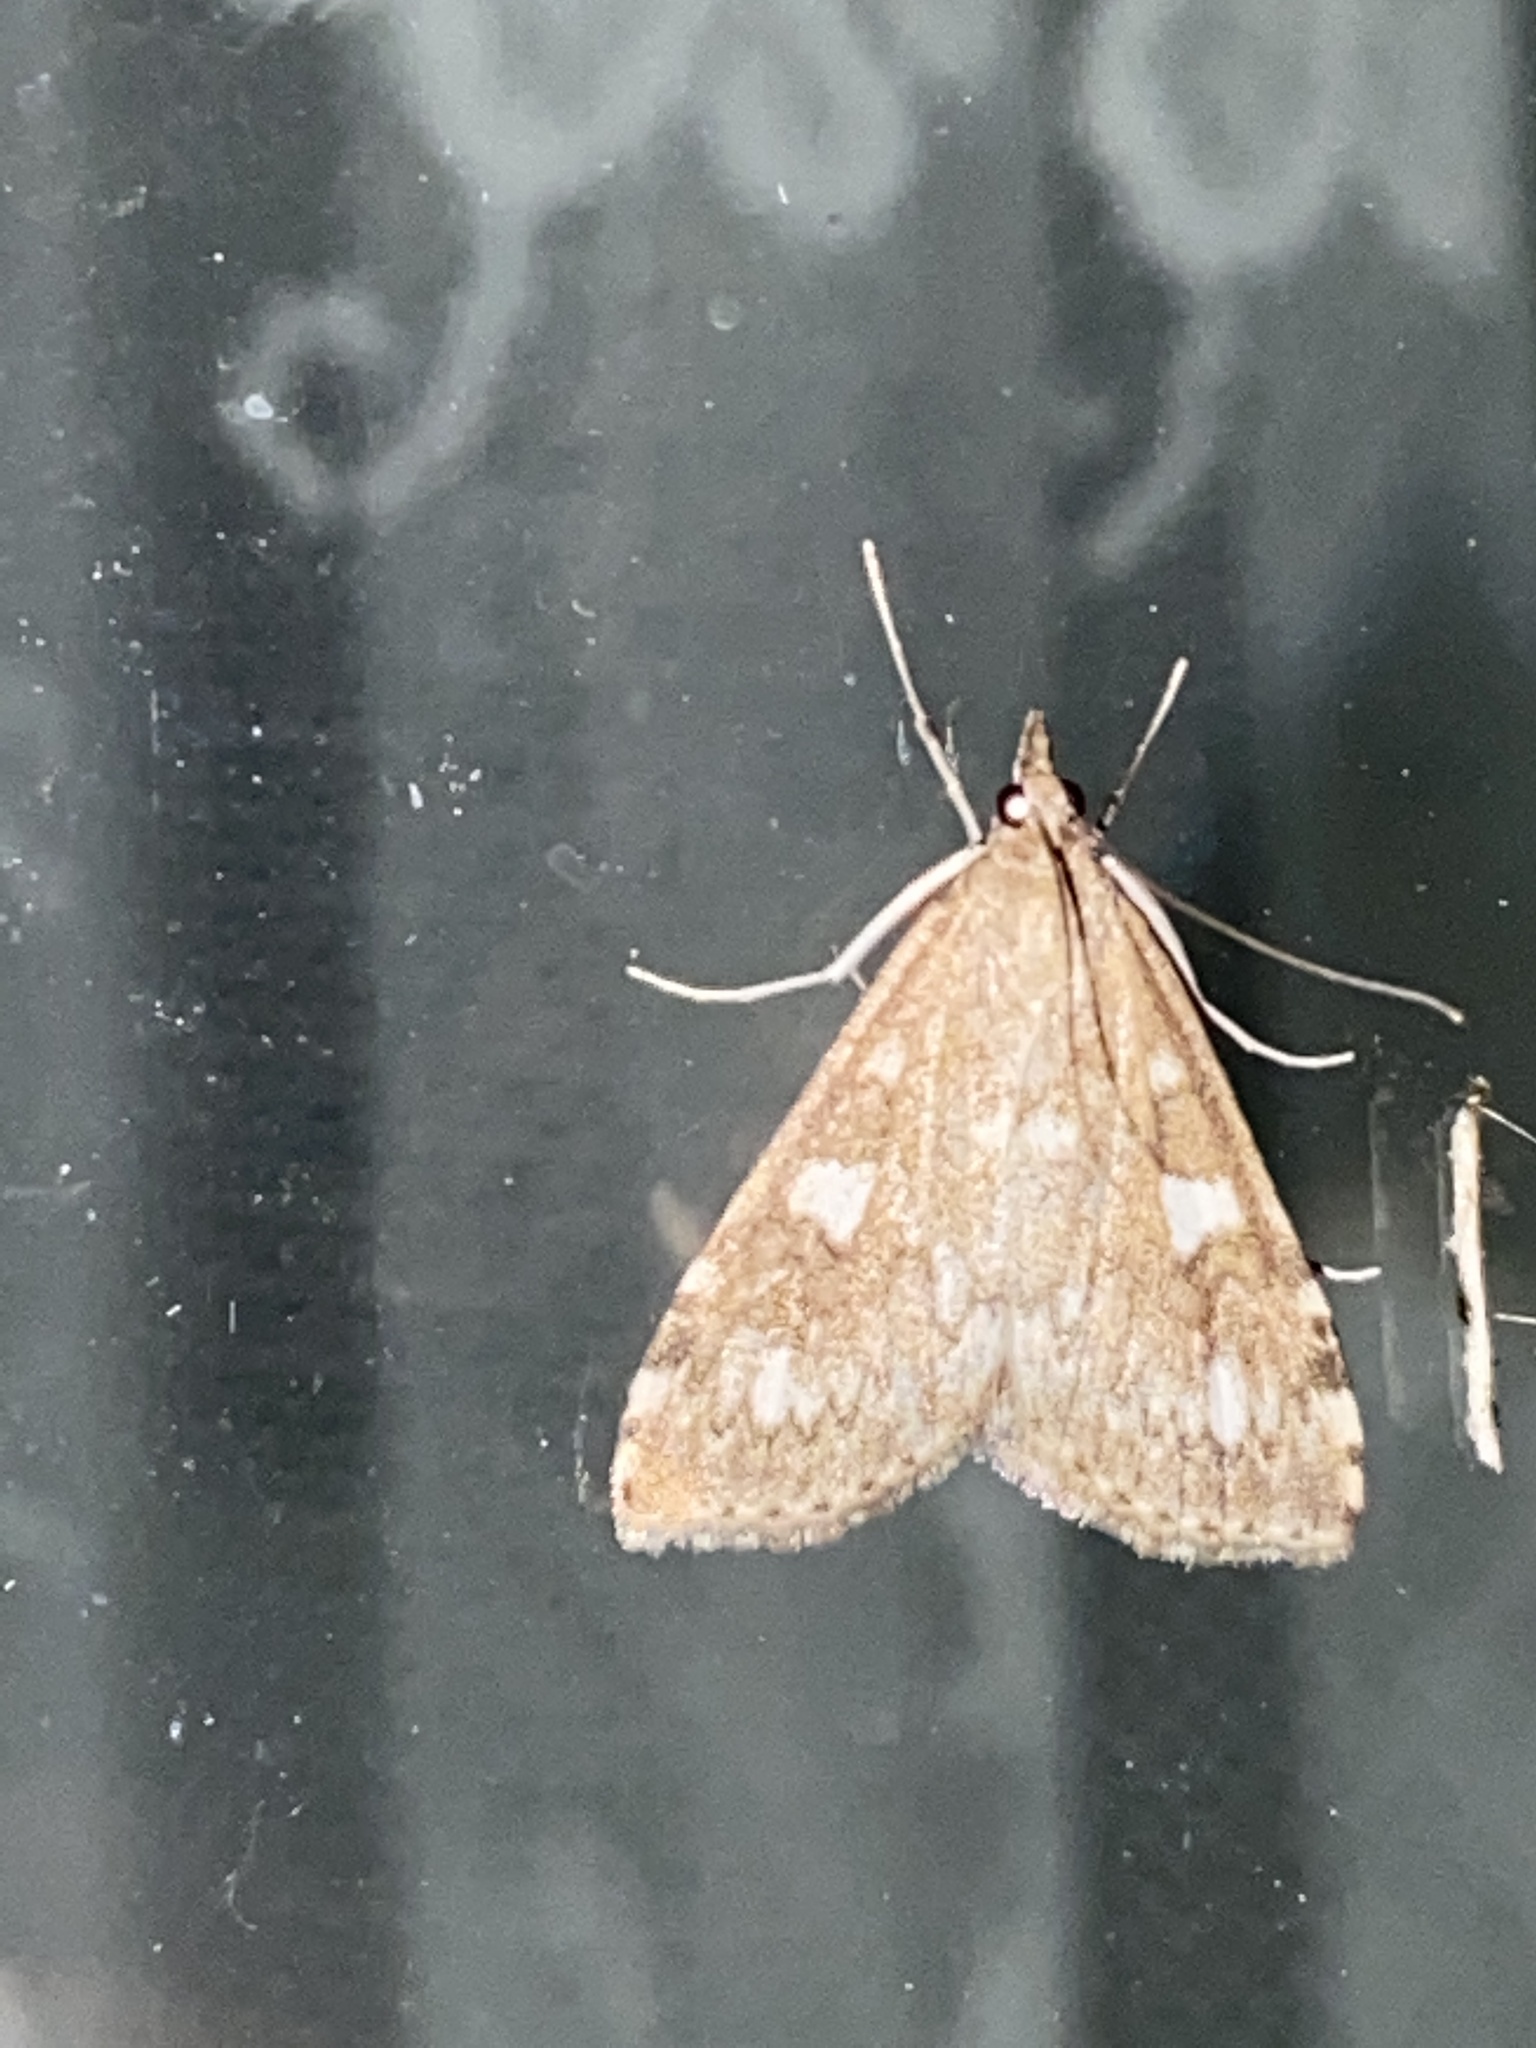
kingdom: Animalia
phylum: Arthropoda
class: Insecta
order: Lepidoptera
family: Crambidae
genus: Udea
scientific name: Udea olivalis
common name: Olive pearl
